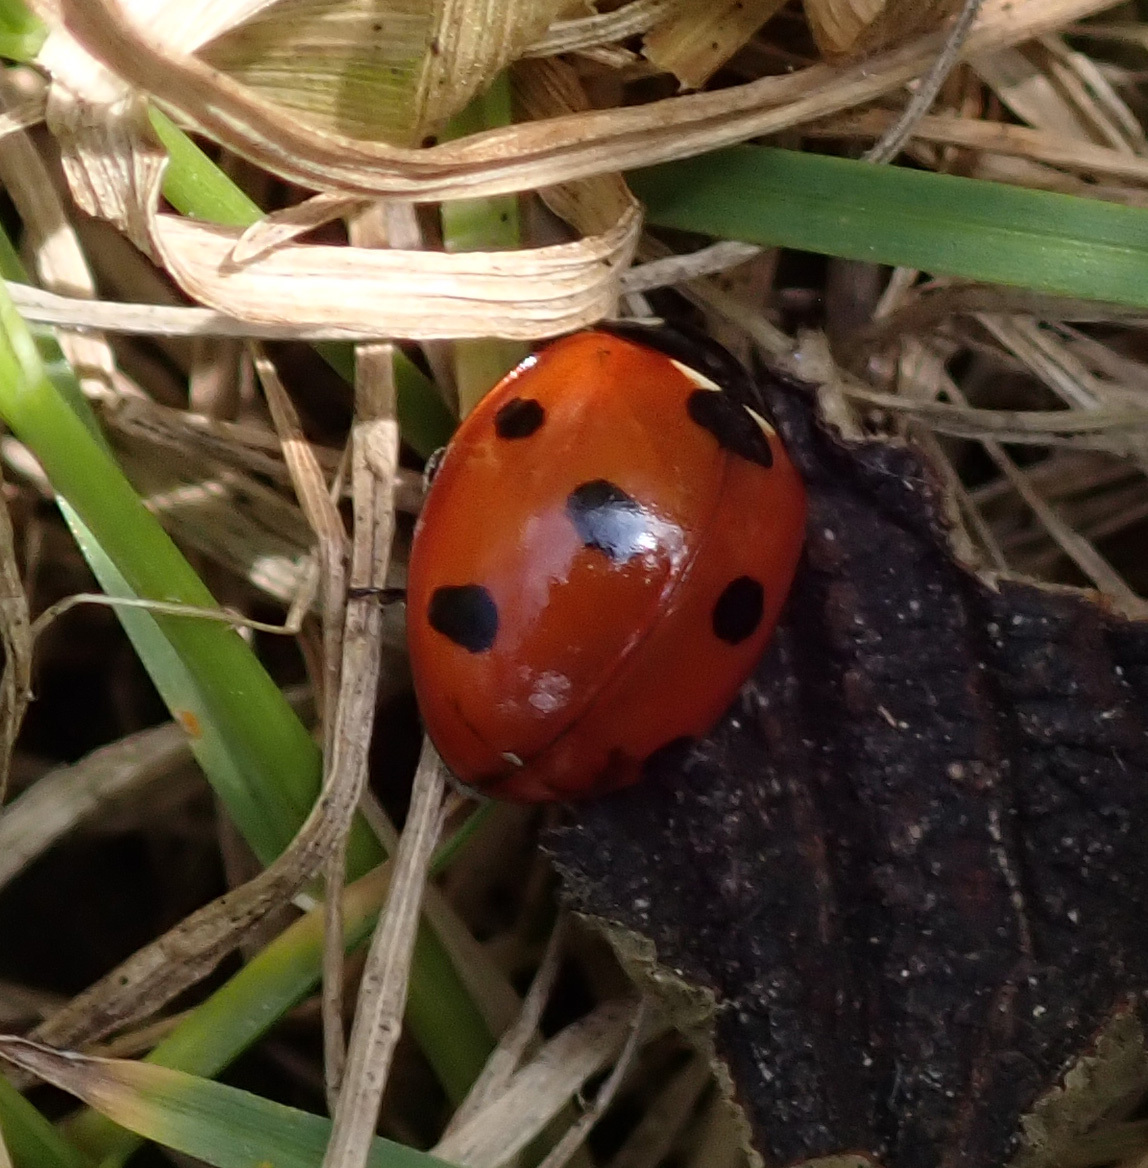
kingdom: Animalia
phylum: Arthropoda
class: Insecta
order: Coleoptera
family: Coccinellidae
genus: Coccinella
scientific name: Coccinella septempunctata
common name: Sevenspotted lady beetle
